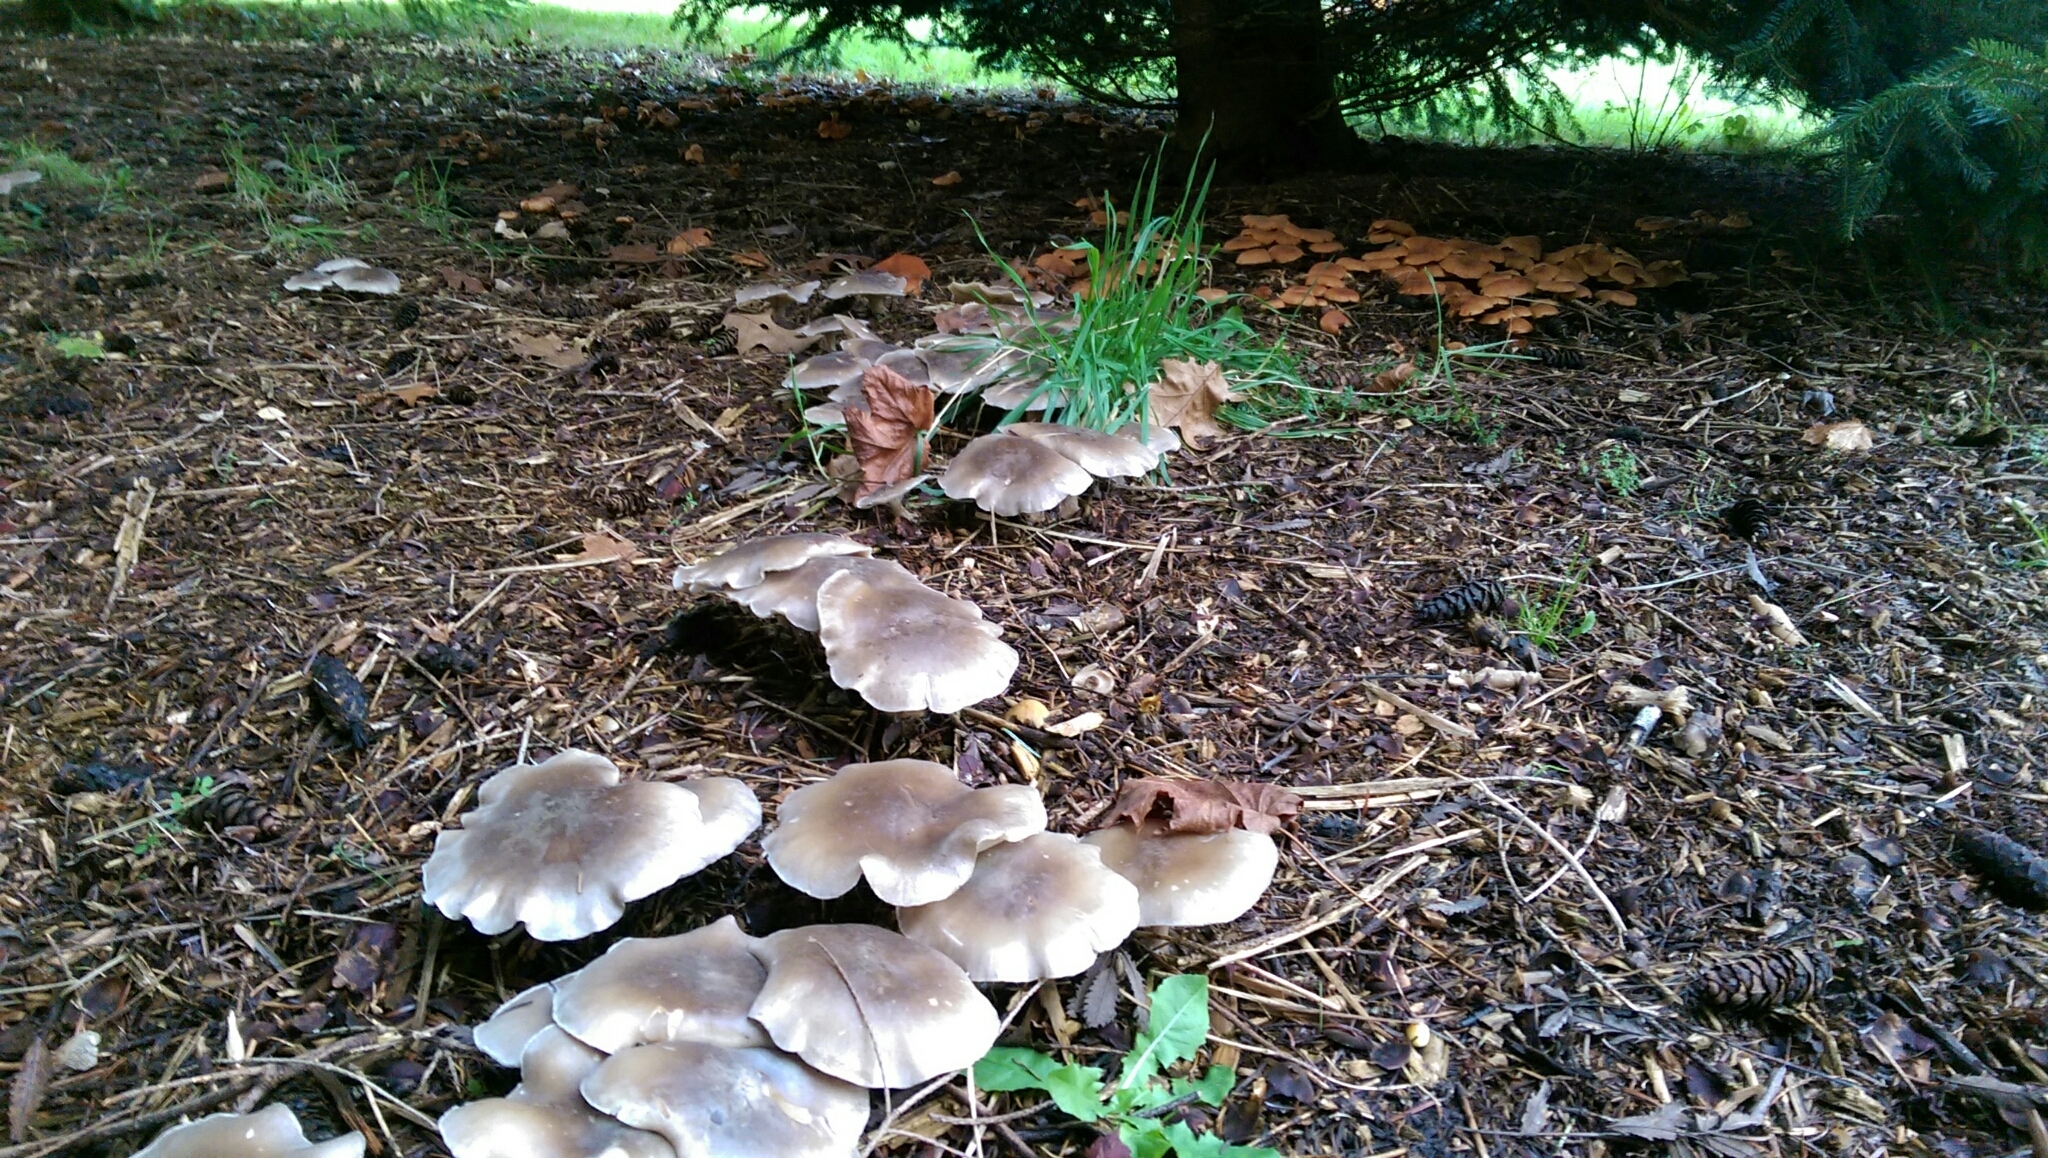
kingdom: Fungi
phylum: Basidiomycota
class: Agaricomycetes
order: Agaricales
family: Tricholomataceae
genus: Clitocybe
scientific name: Clitocybe nebularis
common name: Clouded agaric
